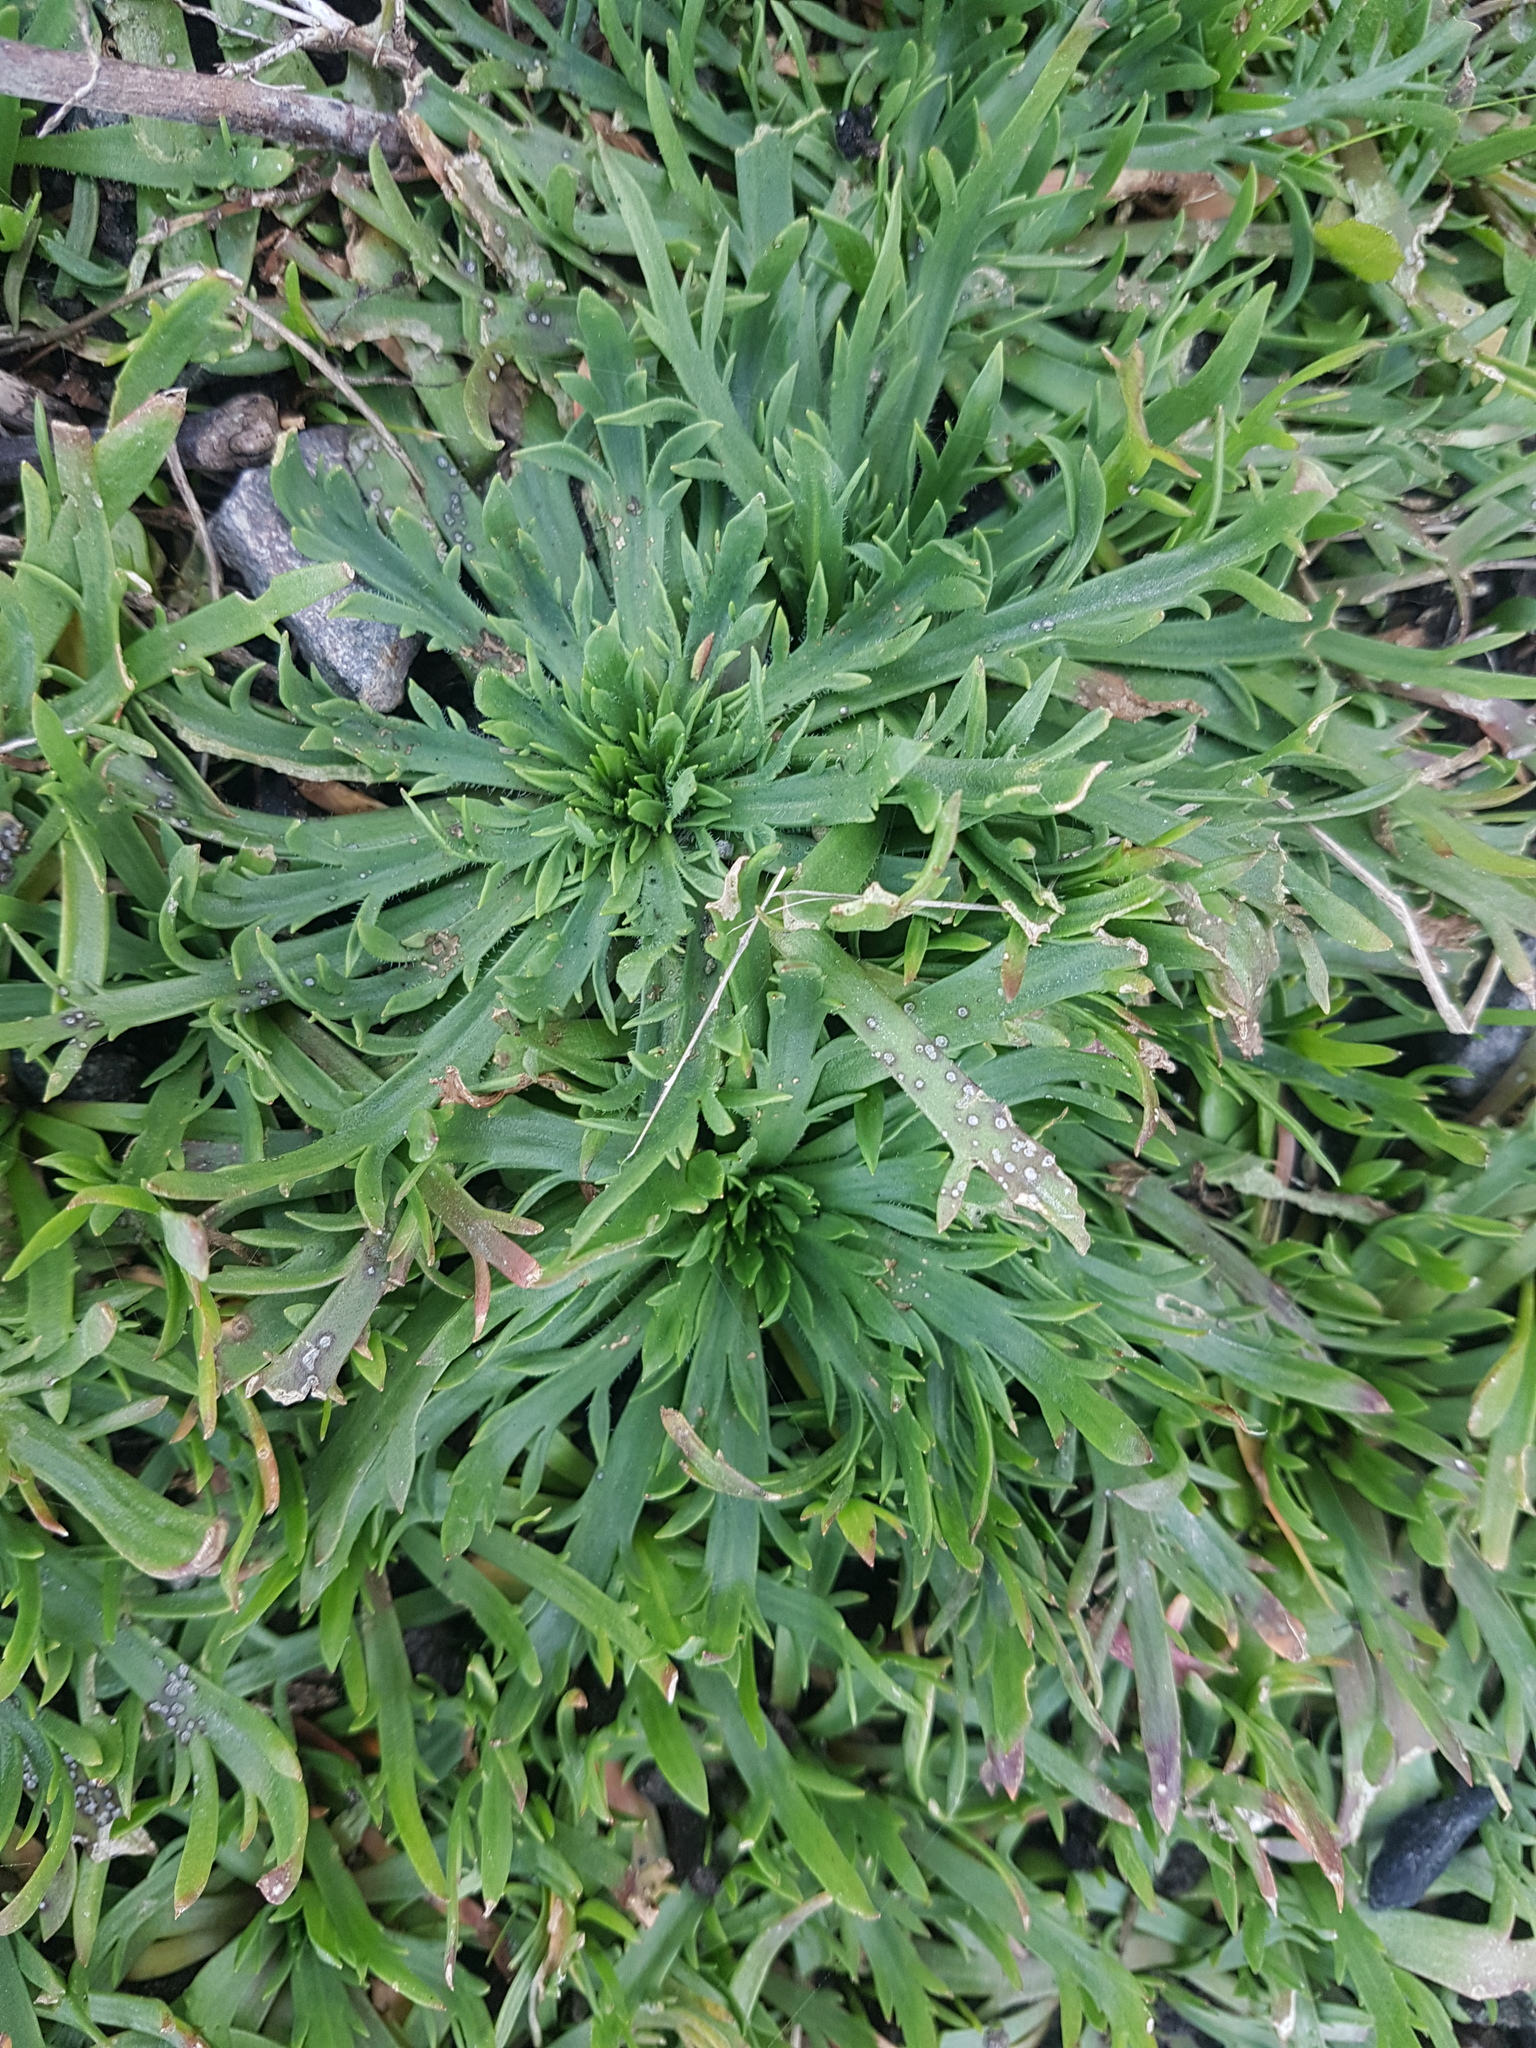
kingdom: Plantae
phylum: Tracheophyta
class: Magnoliopsida
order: Lamiales
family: Plantaginaceae
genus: Plantago
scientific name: Plantago coronopus
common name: Buck's-horn plantain
